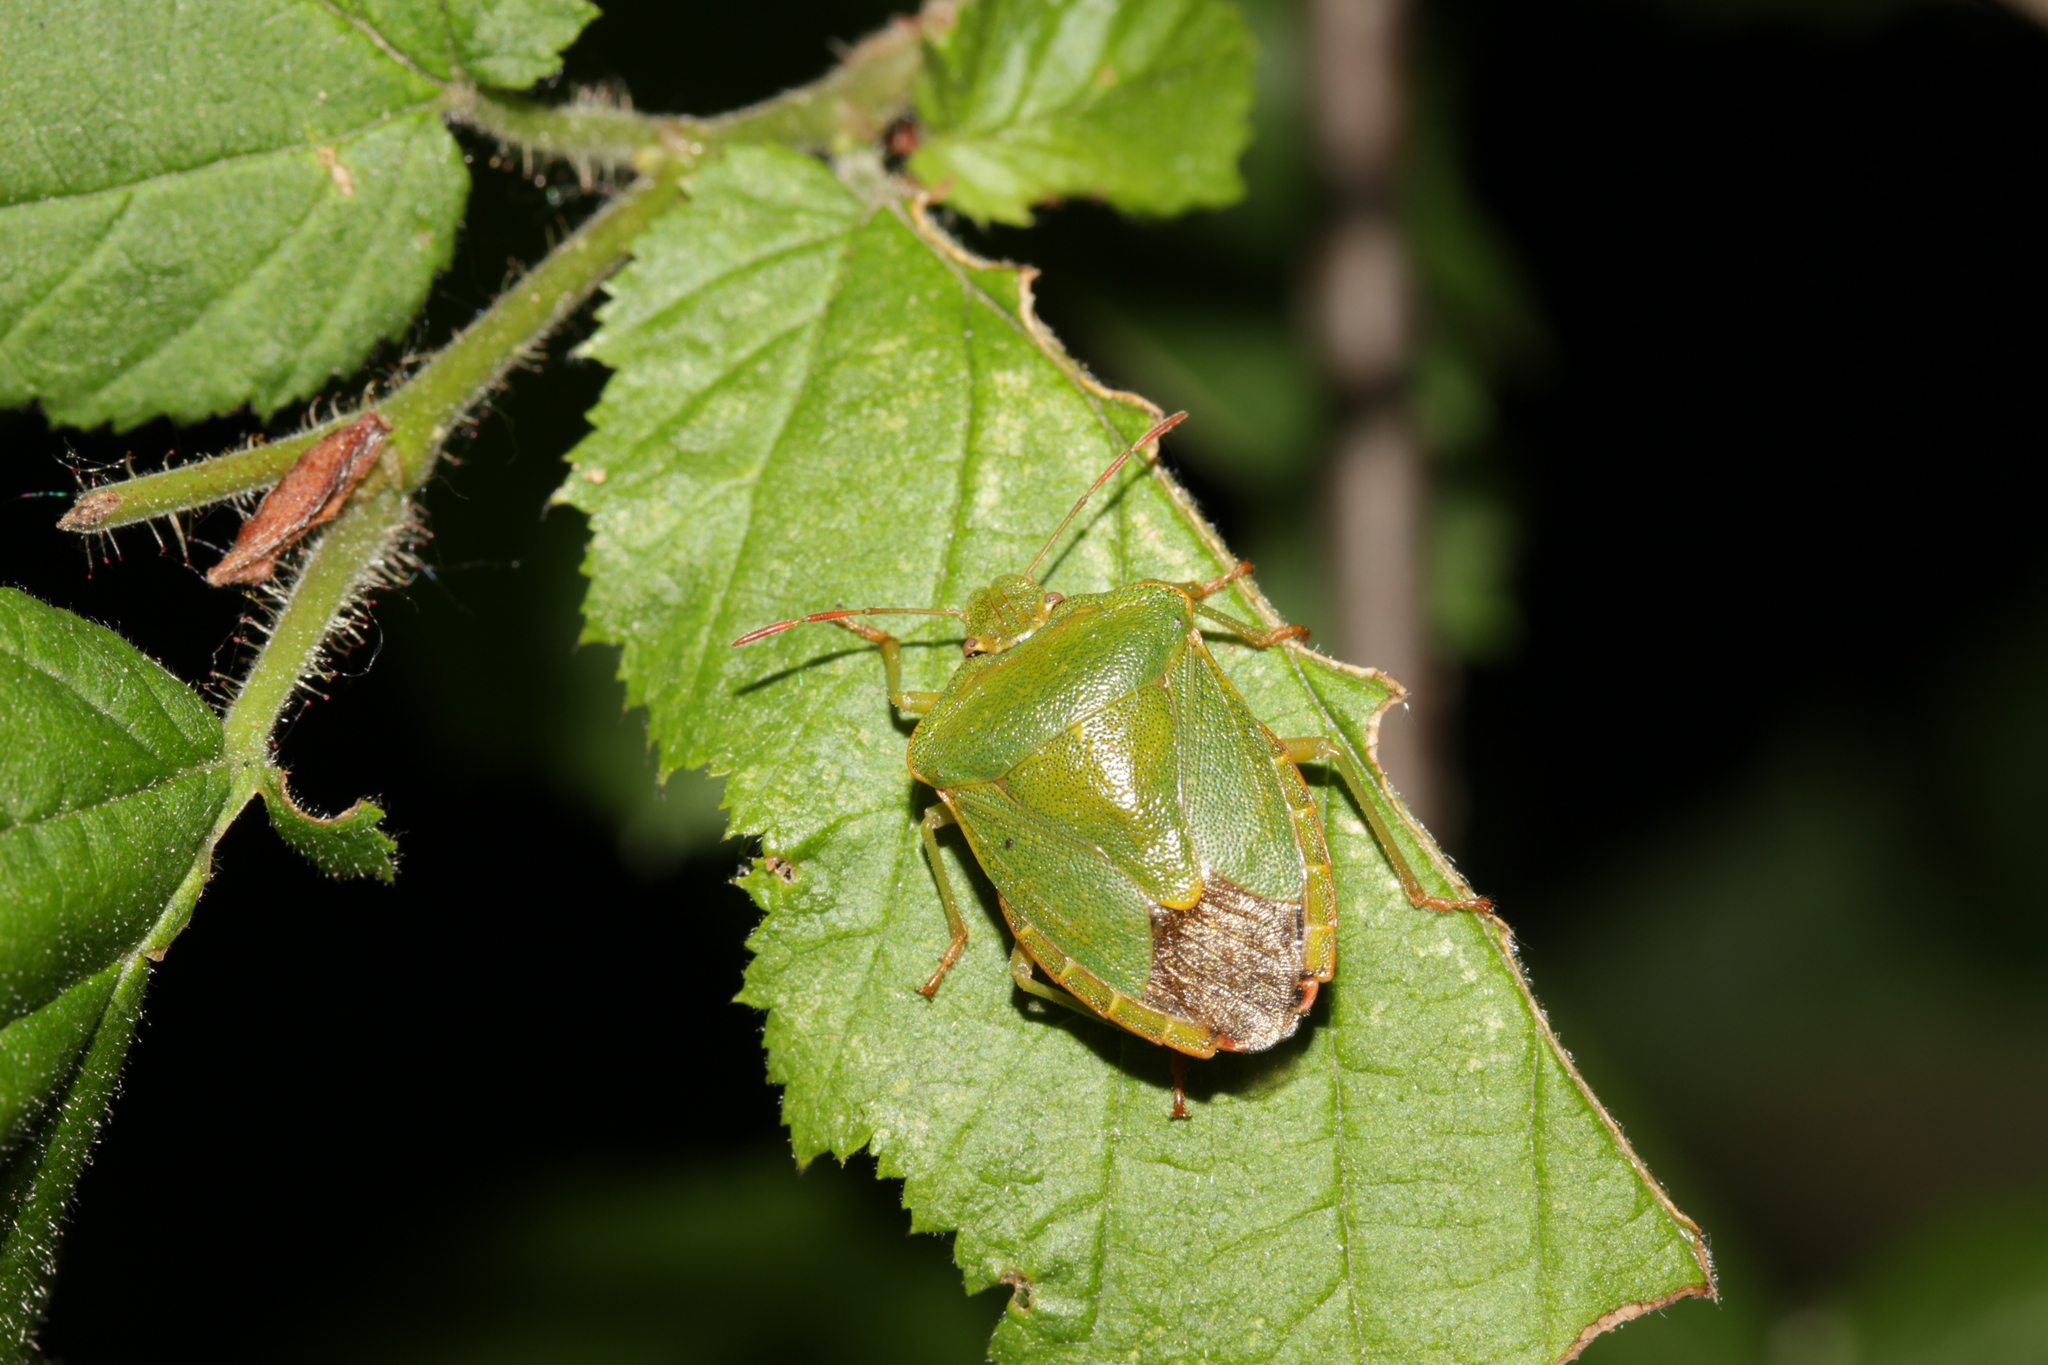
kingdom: Animalia
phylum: Arthropoda
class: Insecta
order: Hemiptera
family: Pentatomidae
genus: Palomena
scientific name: Palomena prasina
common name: Green shieldbug
